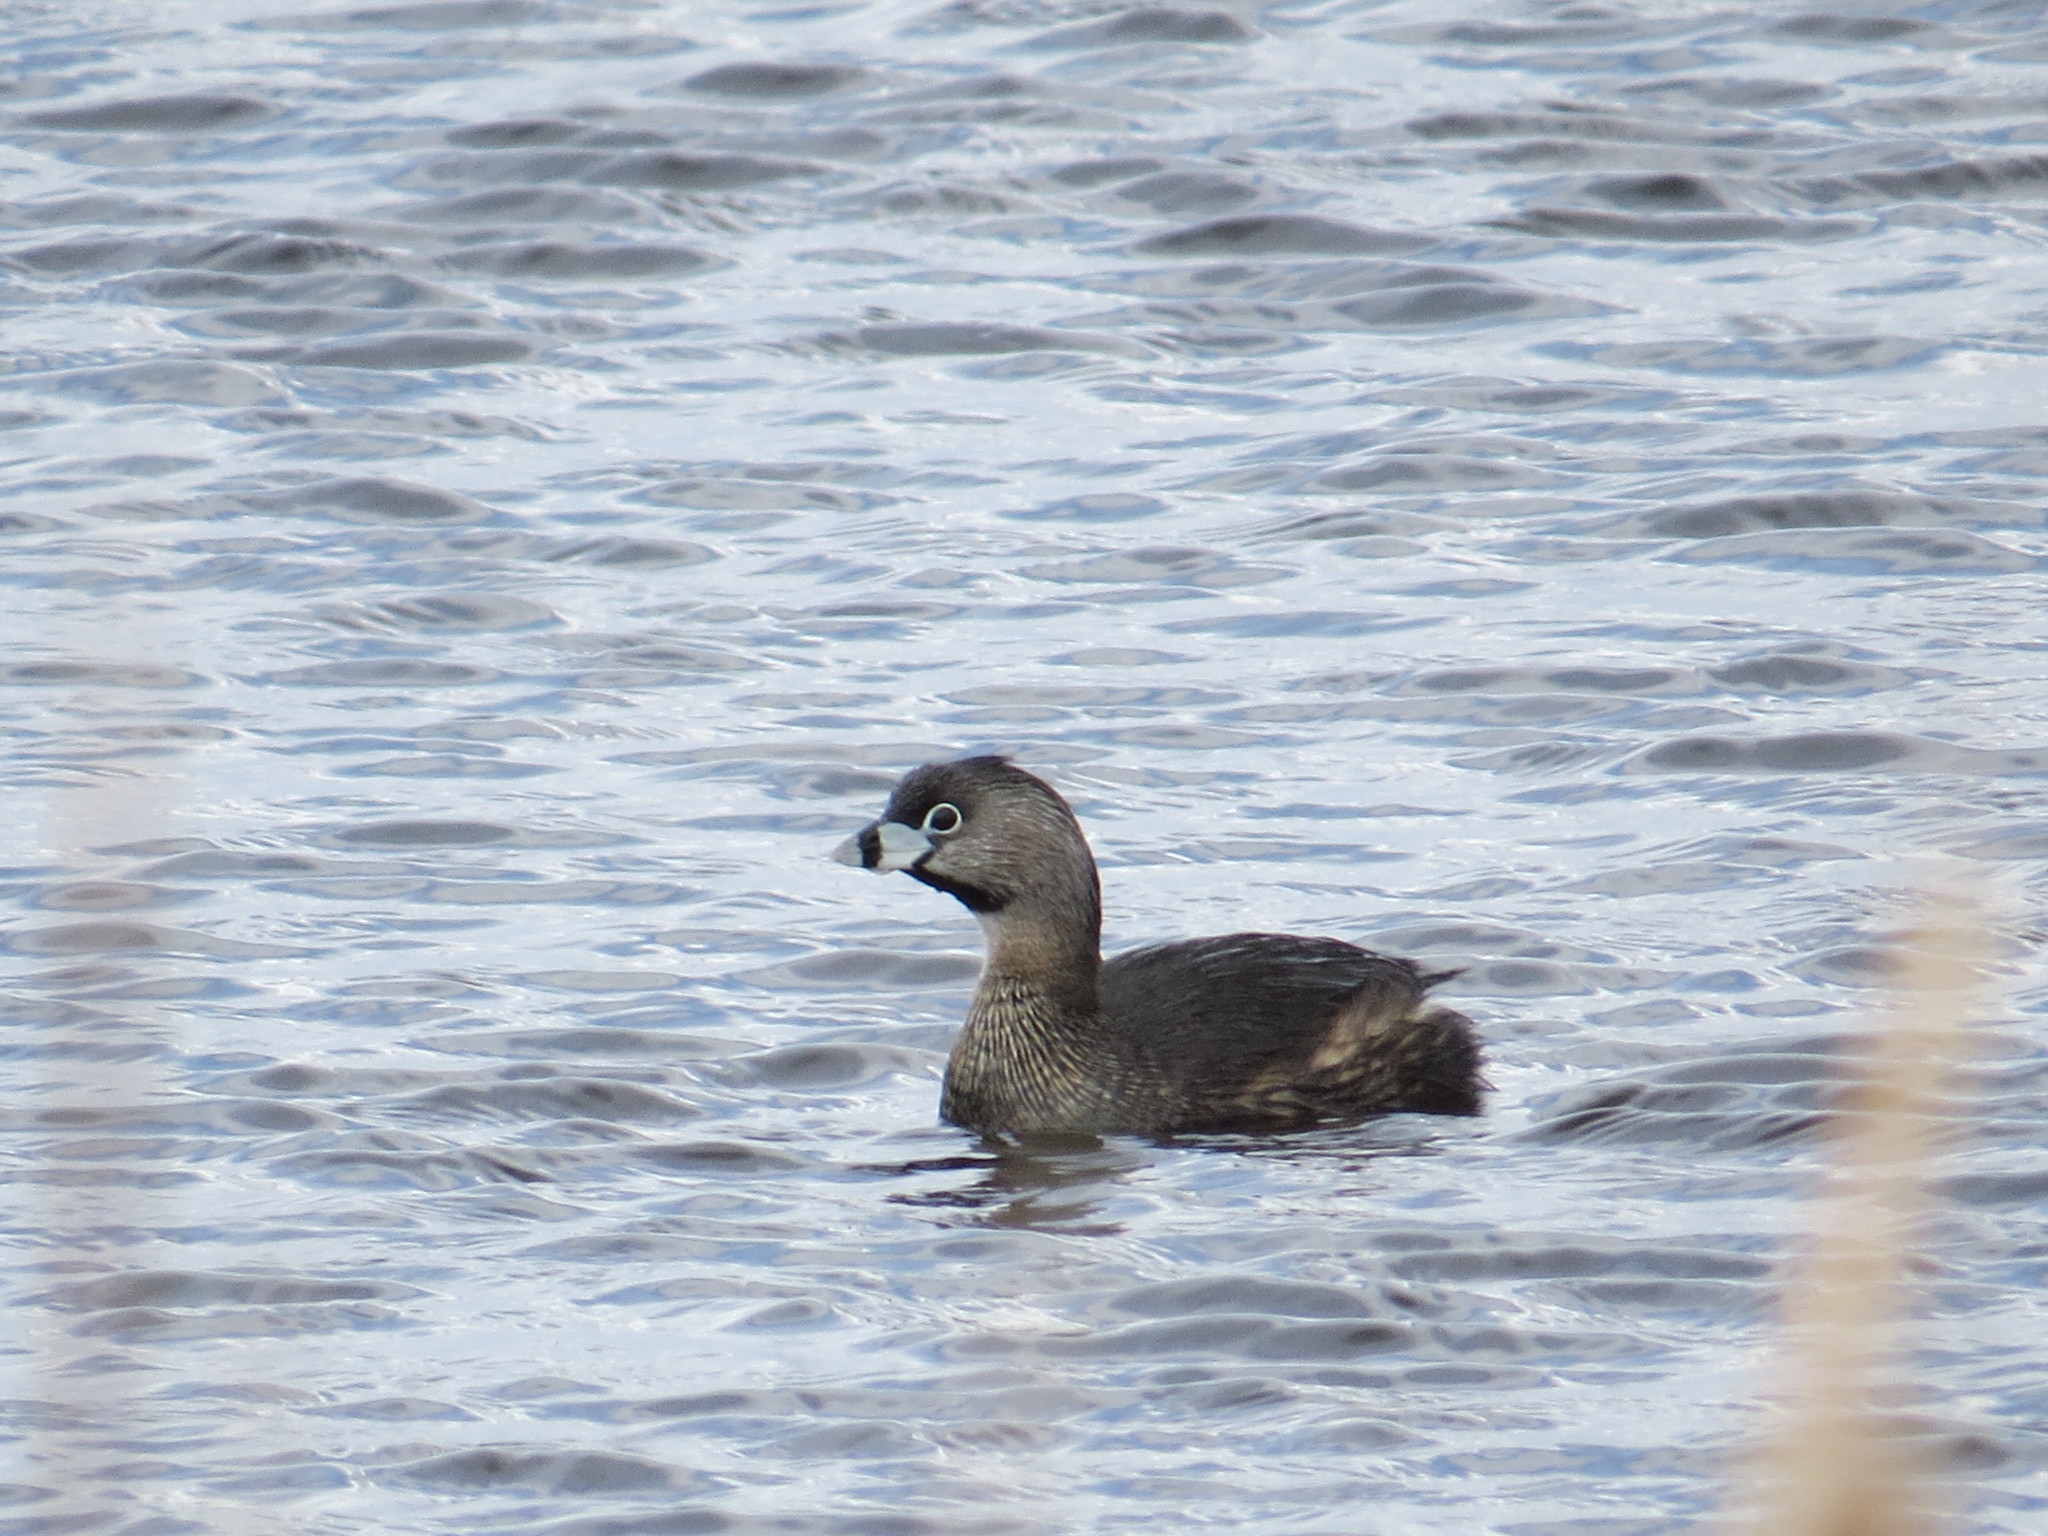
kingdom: Animalia
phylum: Chordata
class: Aves
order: Podicipediformes
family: Podicipedidae
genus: Podilymbus
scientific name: Podilymbus podiceps
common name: Pied-billed grebe
